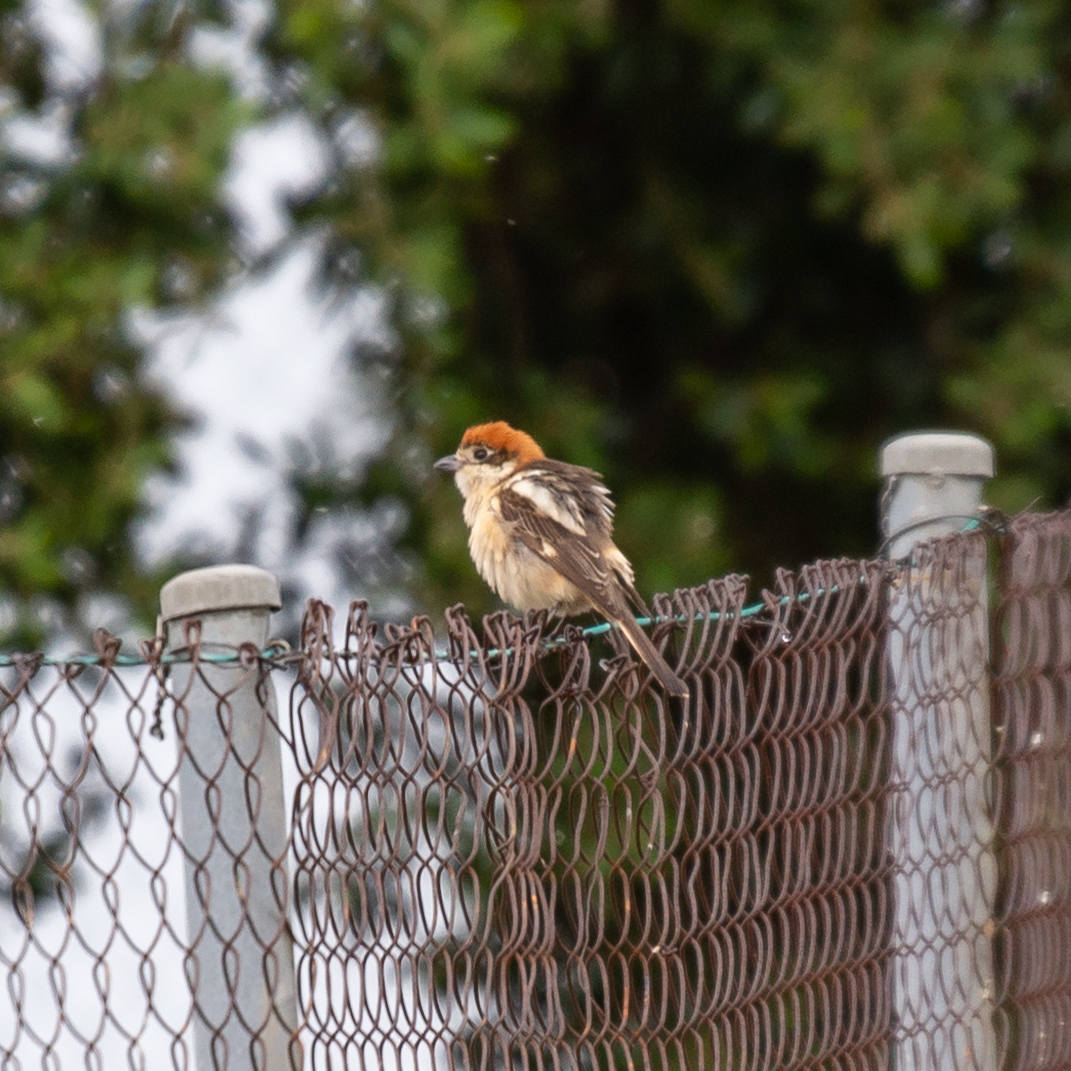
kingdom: Animalia
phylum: Chordata
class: Aves
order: Passeriformes
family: Laniidae
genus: Lanius
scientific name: Lanius senator
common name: Woodchat shrike
